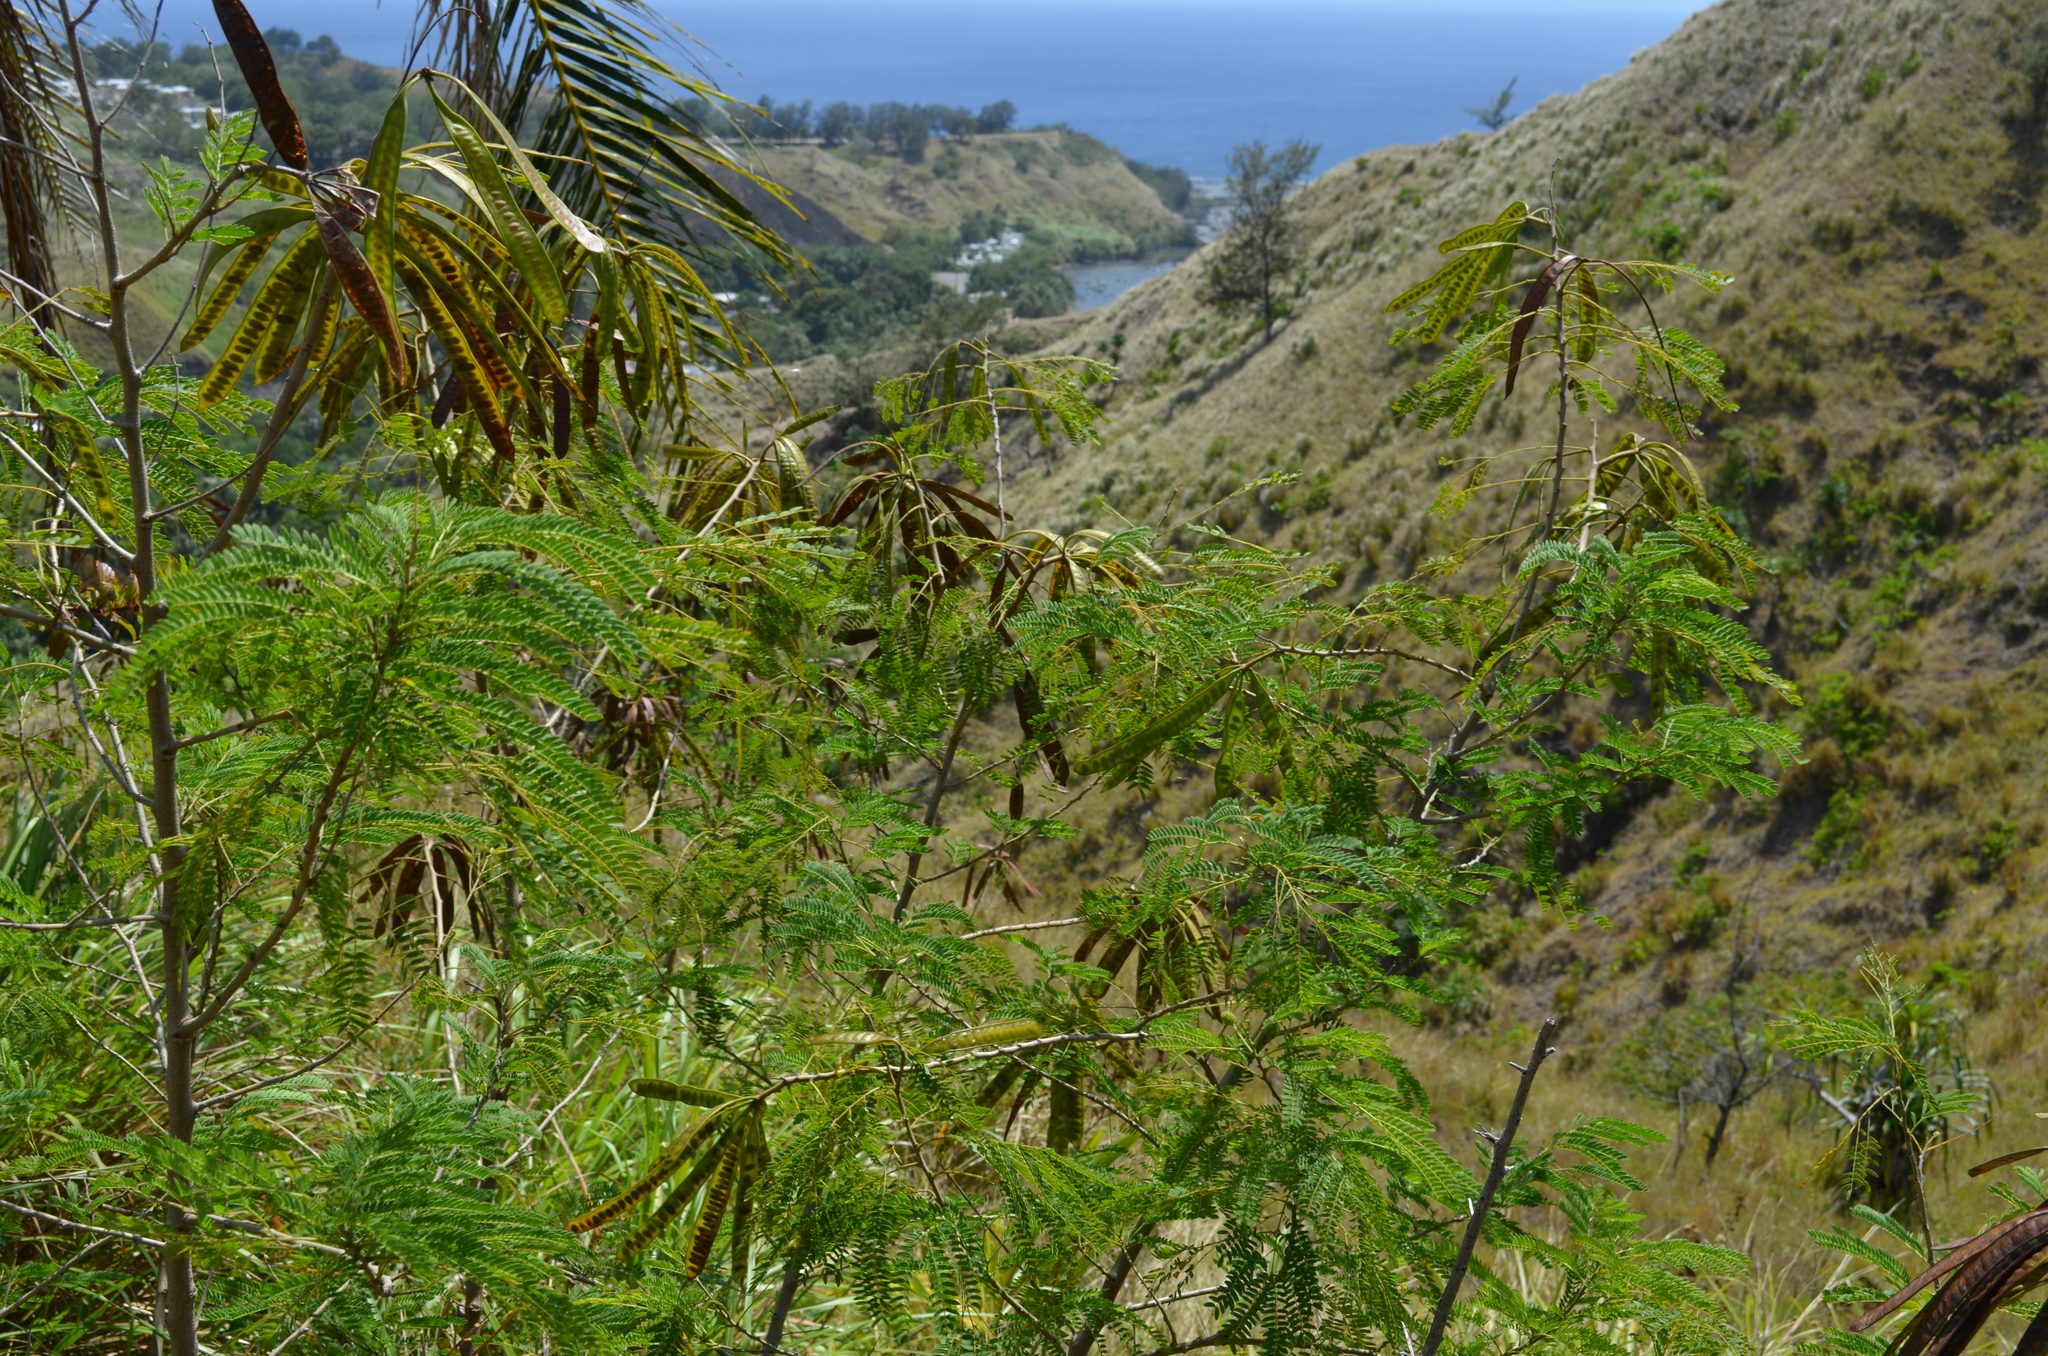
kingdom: Plantae
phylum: Tracheophyta
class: Magnoliopsida
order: Fabales
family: Fabaceae
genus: Leucaena
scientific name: Leucaena leucocephala
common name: White leadtree
